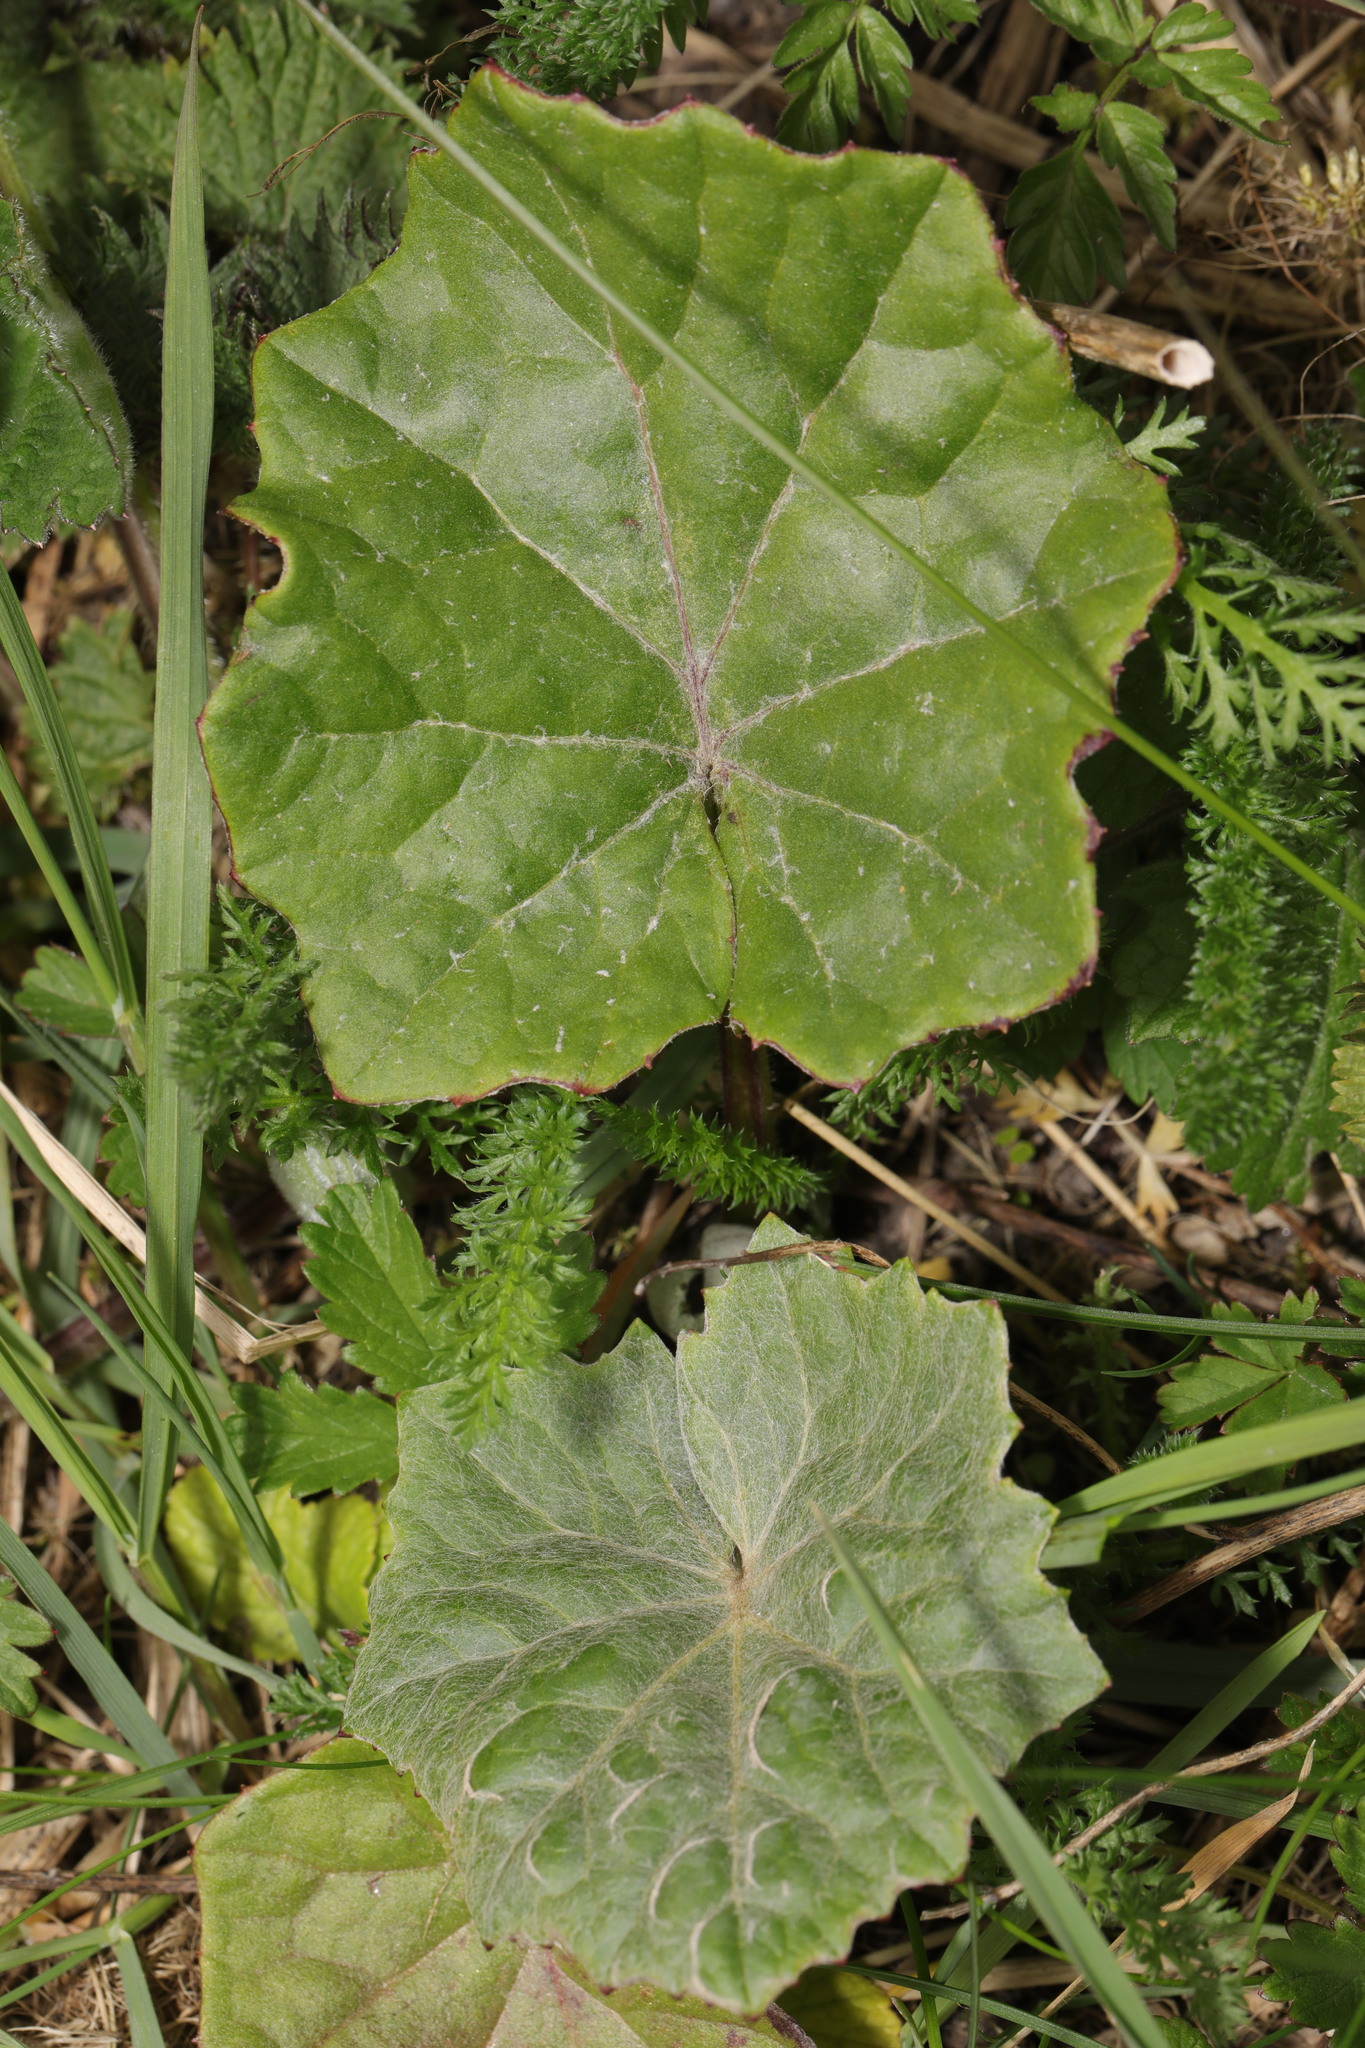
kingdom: Plantae
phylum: Tracheophyta
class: Magnoliopsida
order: Asterales
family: Asteraceae
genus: Tussilago
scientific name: Tussilago farfara
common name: Coltsfoot
